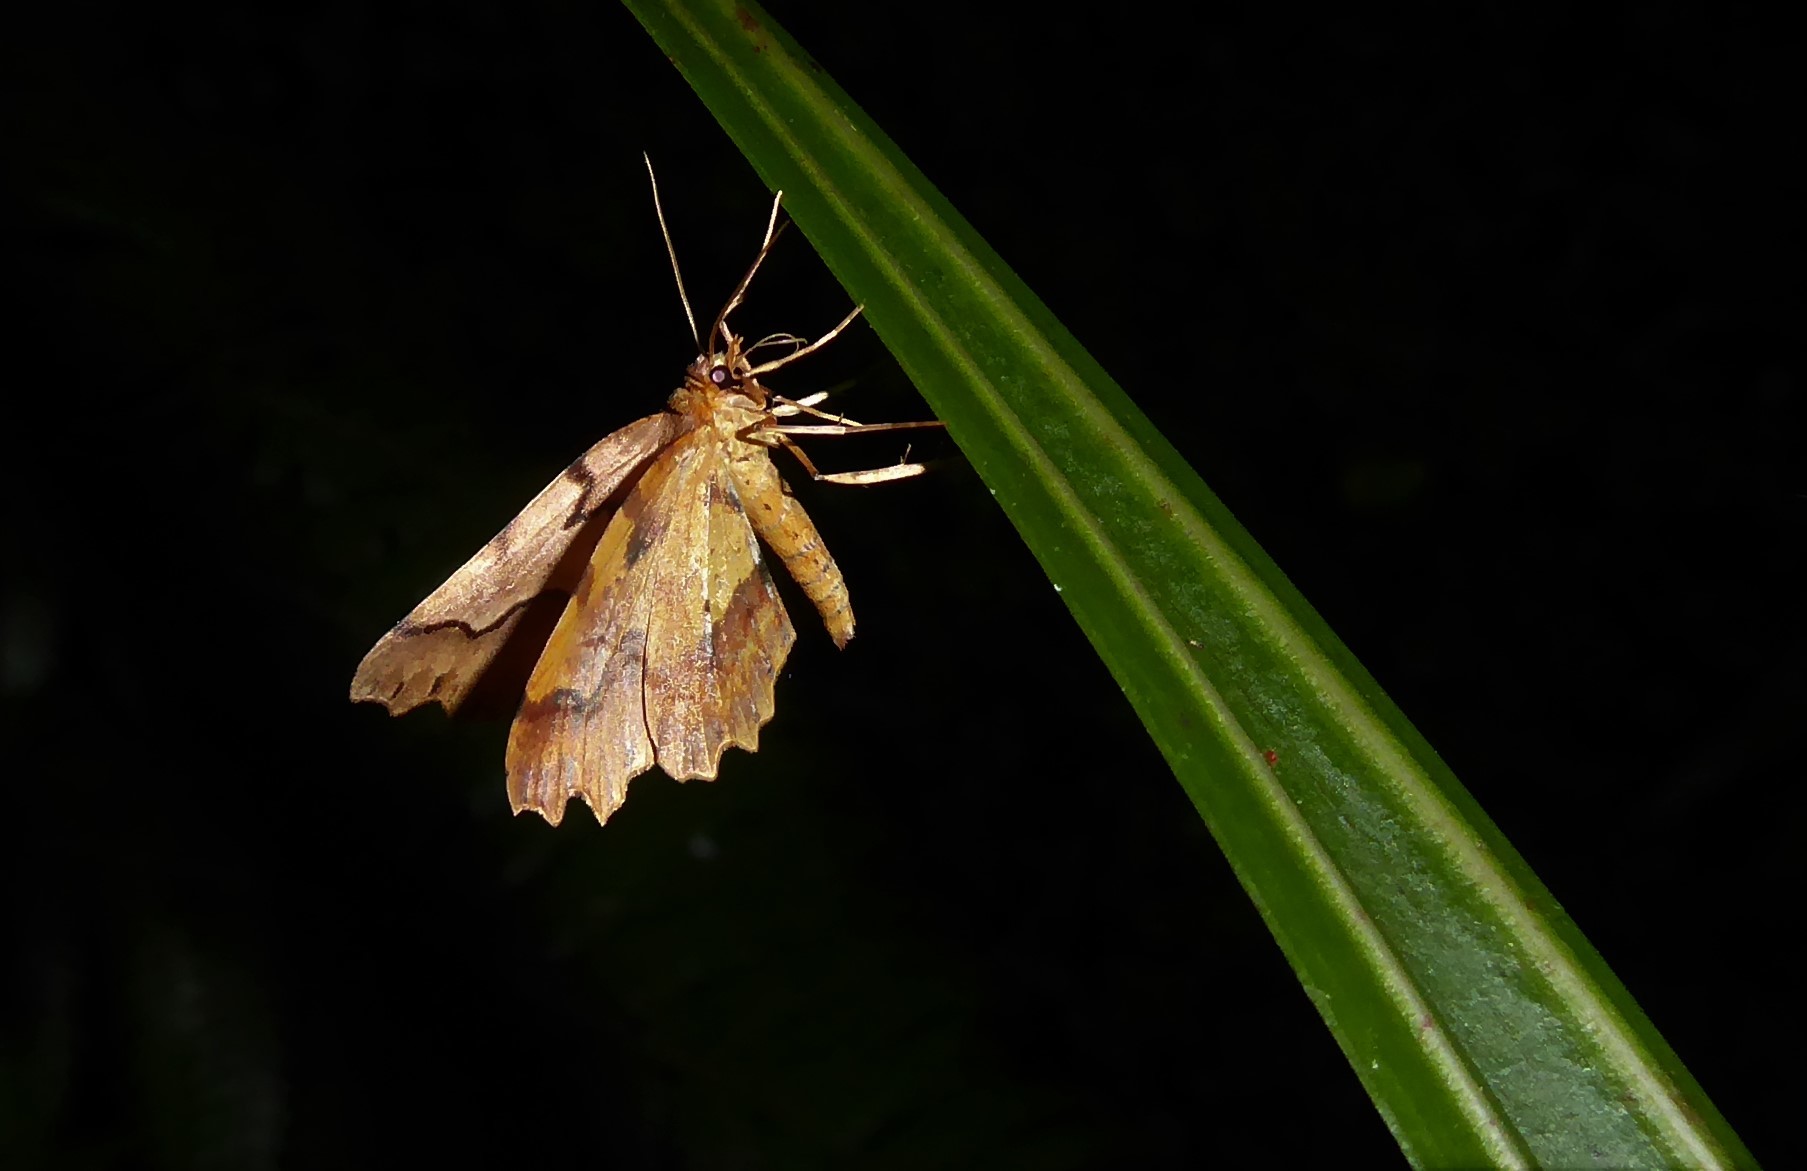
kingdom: Animalia
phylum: Arthropoda
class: Insecta
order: Lepidoptera
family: Geometridae
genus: Ischalis
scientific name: Ischalis fortinata
